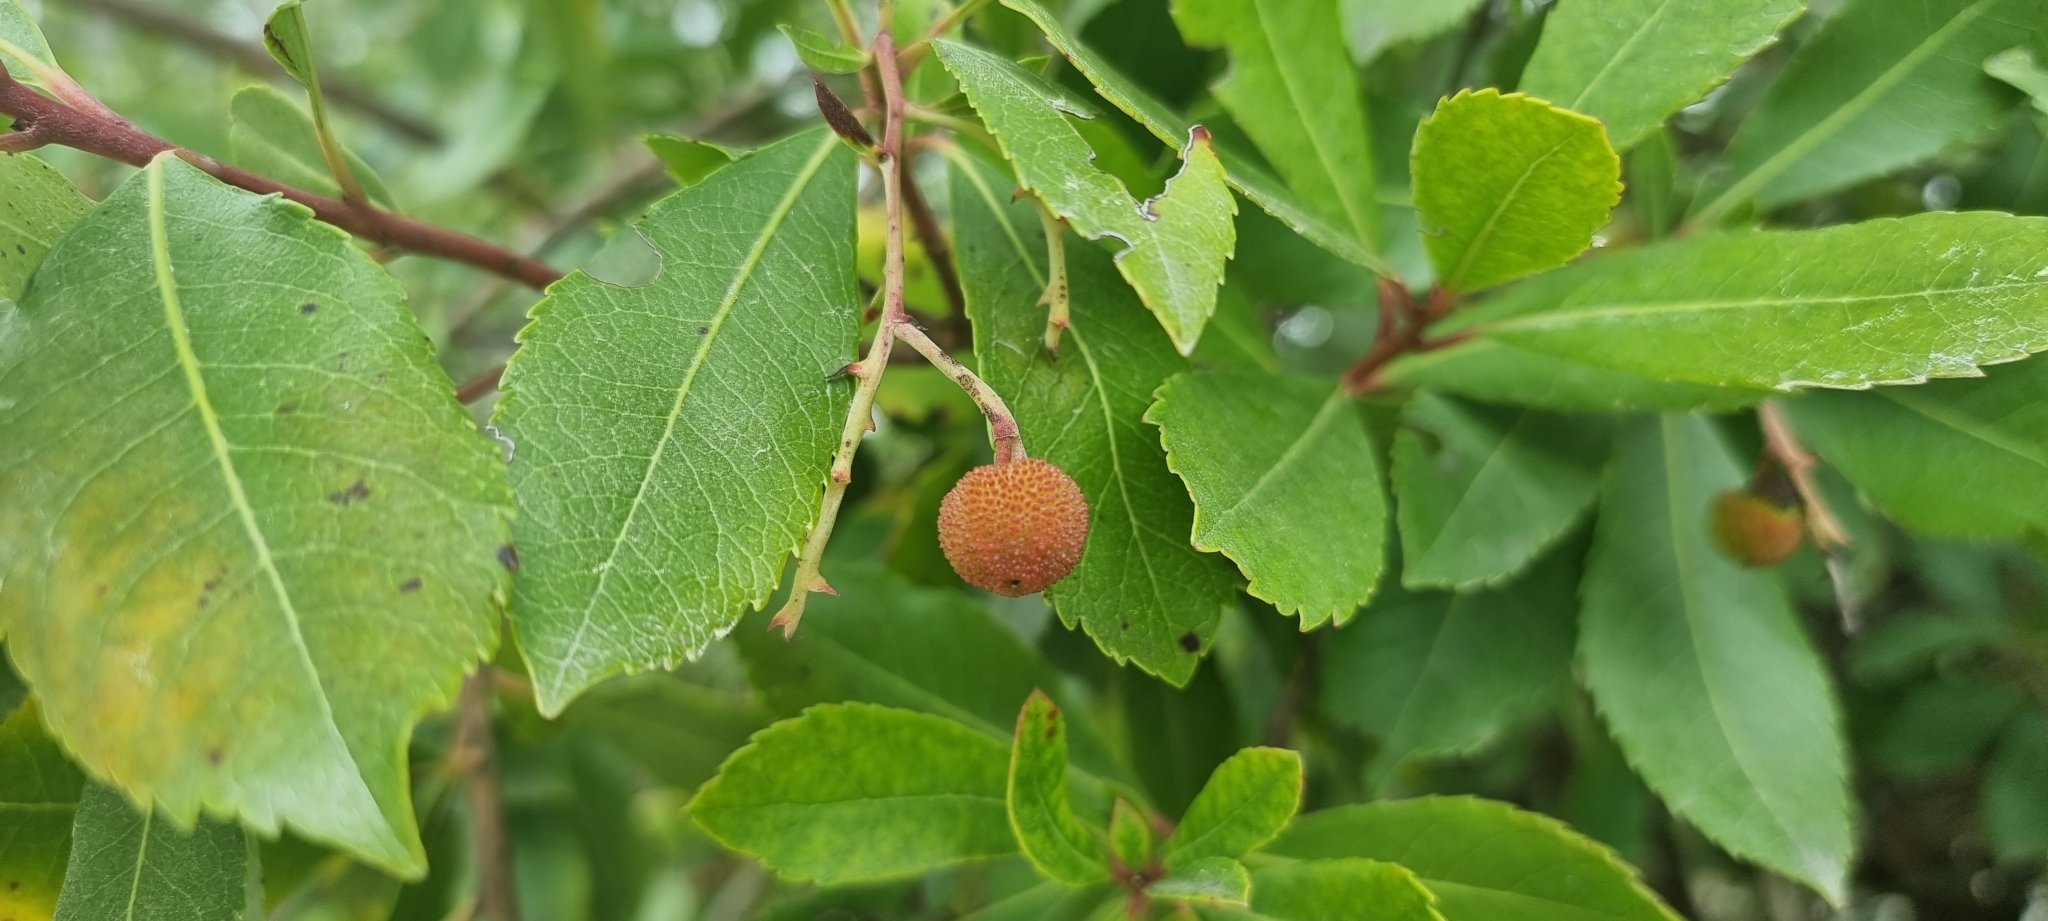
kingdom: Plantae
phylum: Tracheophyta
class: Magnoliopsida
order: Ericales
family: Ericaceae
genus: Arbutus
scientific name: Arbutus unedo
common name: Strawberry-tree
